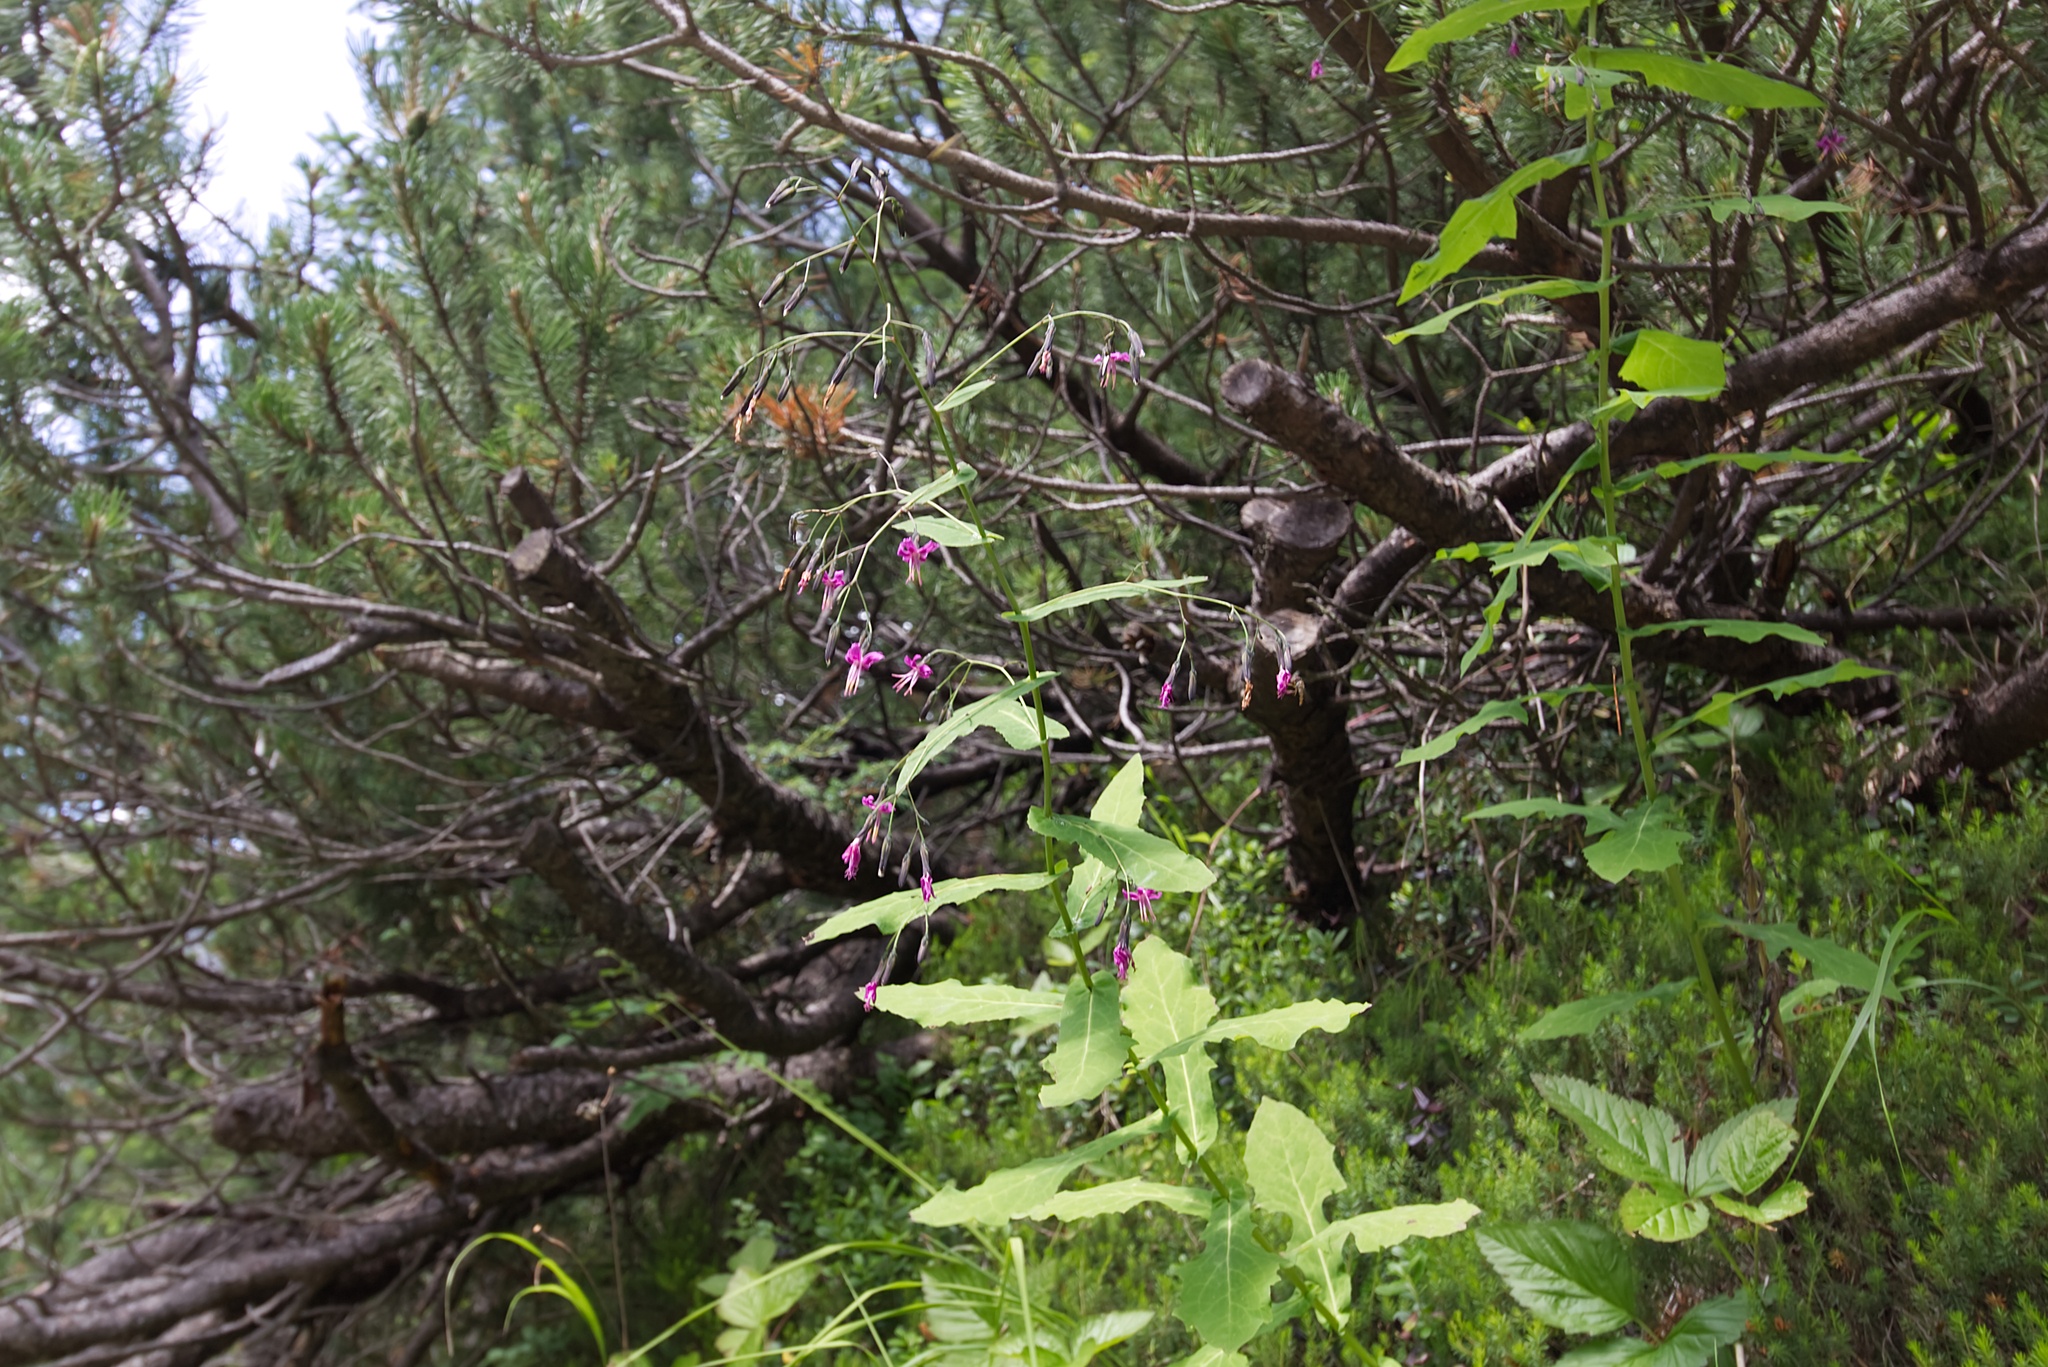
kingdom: Plantae
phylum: Tracheophyta
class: Magnoliopsida
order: Asterales
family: Asteraceae
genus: Prenanthes
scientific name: Prenanthes purpurea
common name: Purple lettuce
